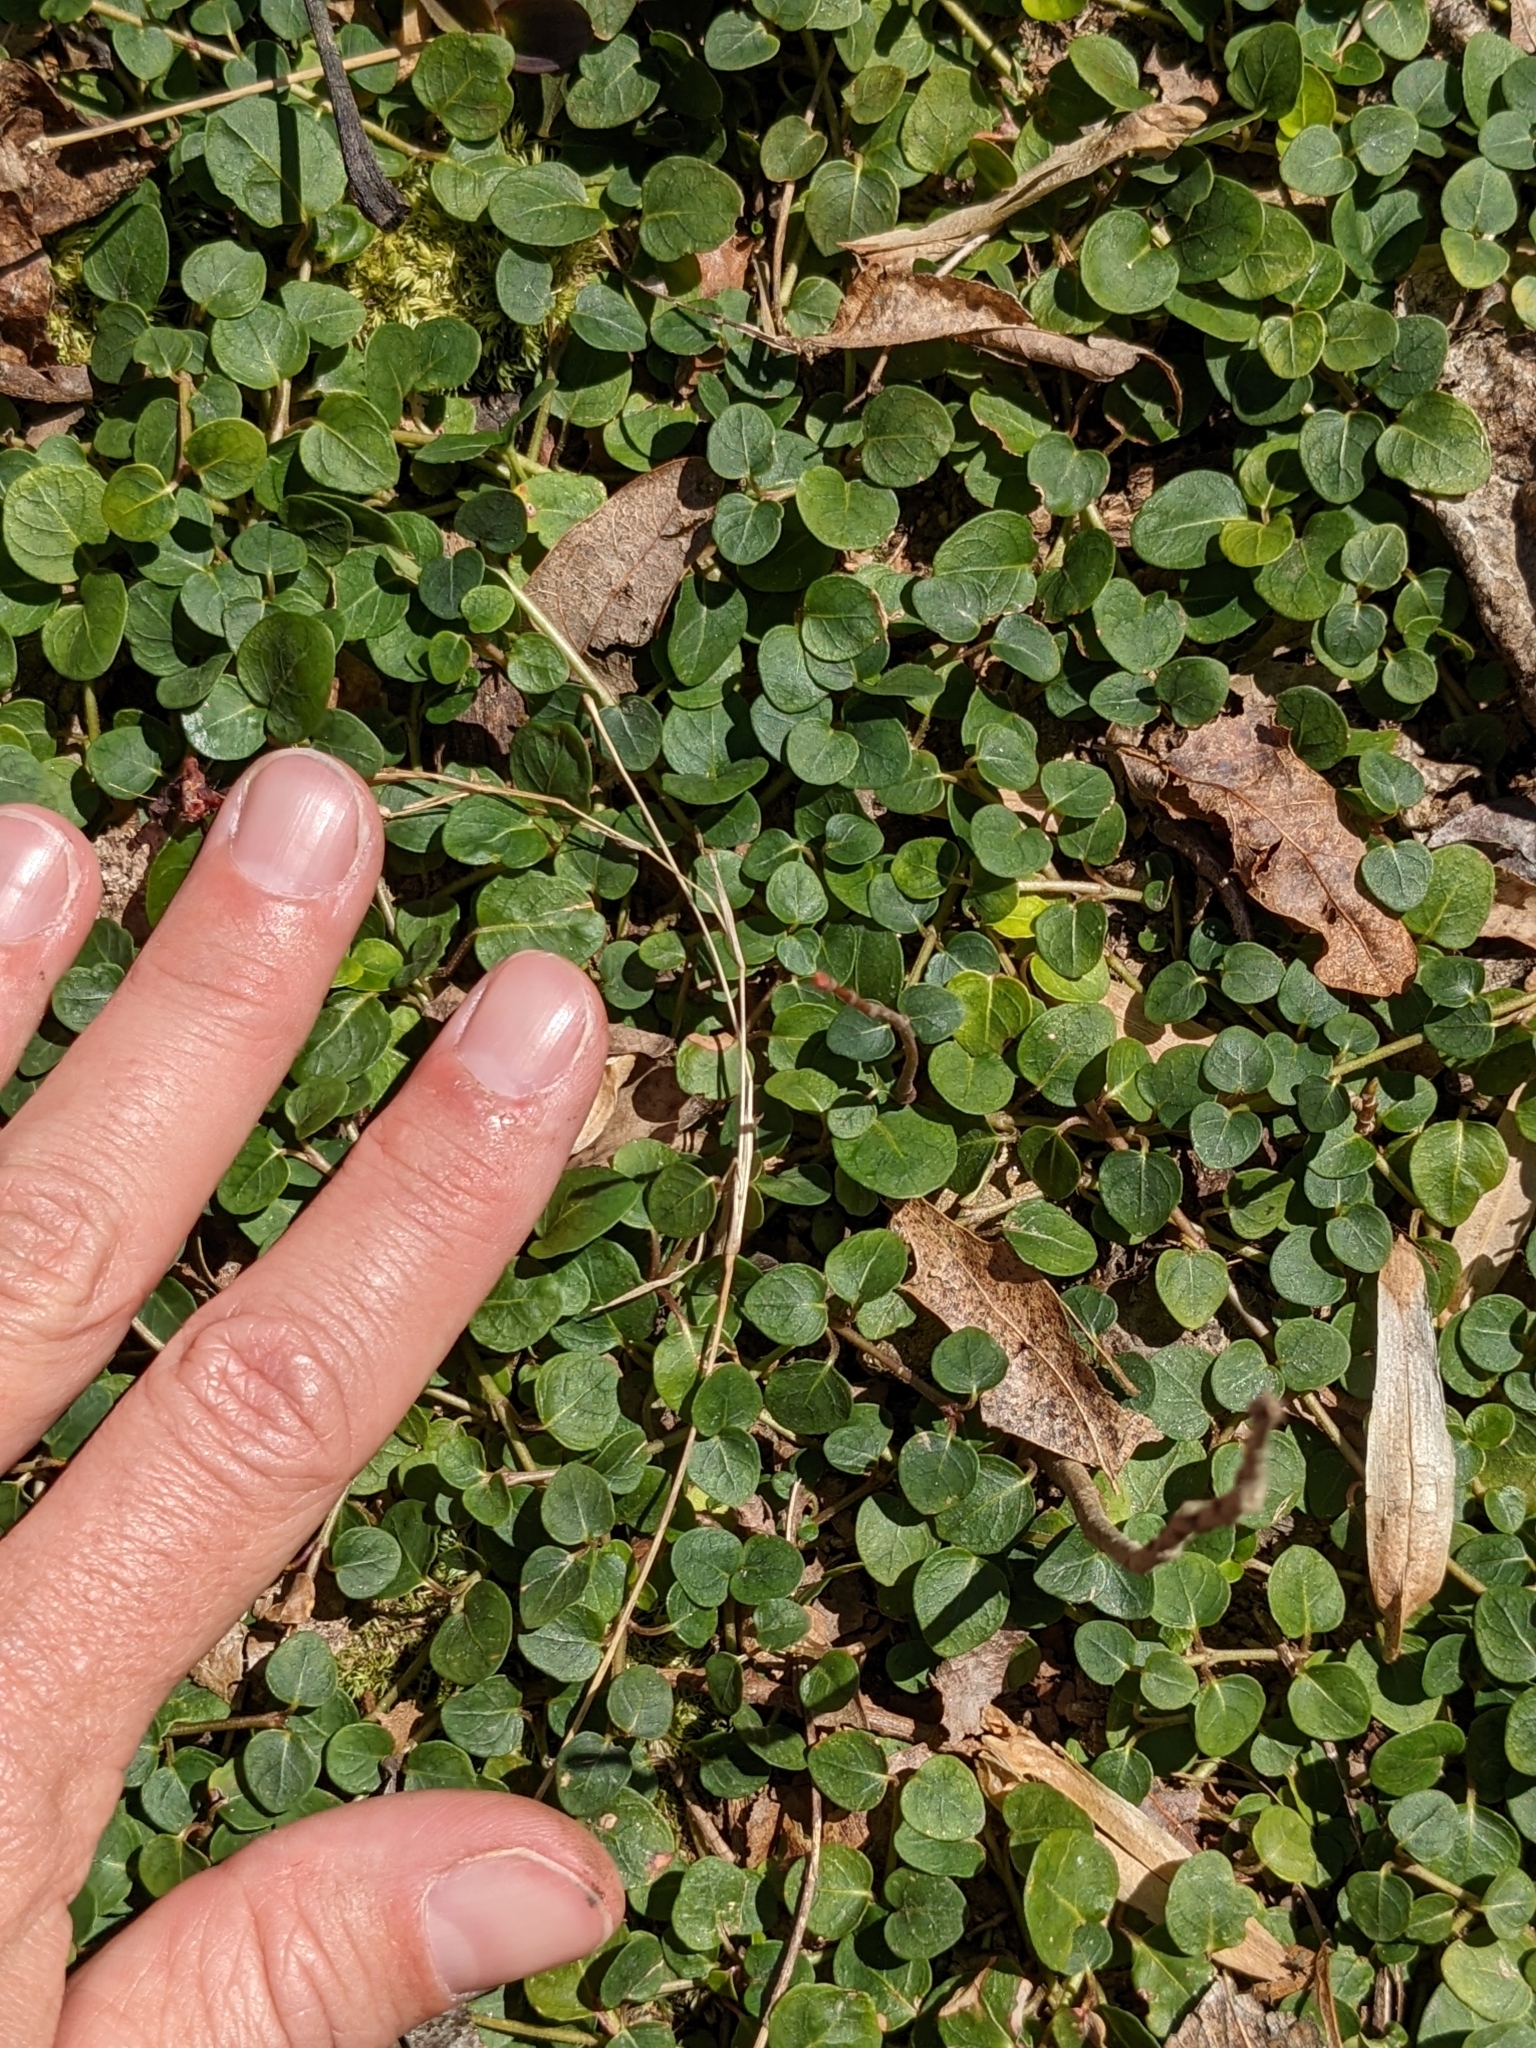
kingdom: Plantae
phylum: Tracheophyta
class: Magnoliopsida
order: Gentianales
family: Rubiaceae
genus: Mitchella
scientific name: Mitchella repens
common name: Partridge-berry
